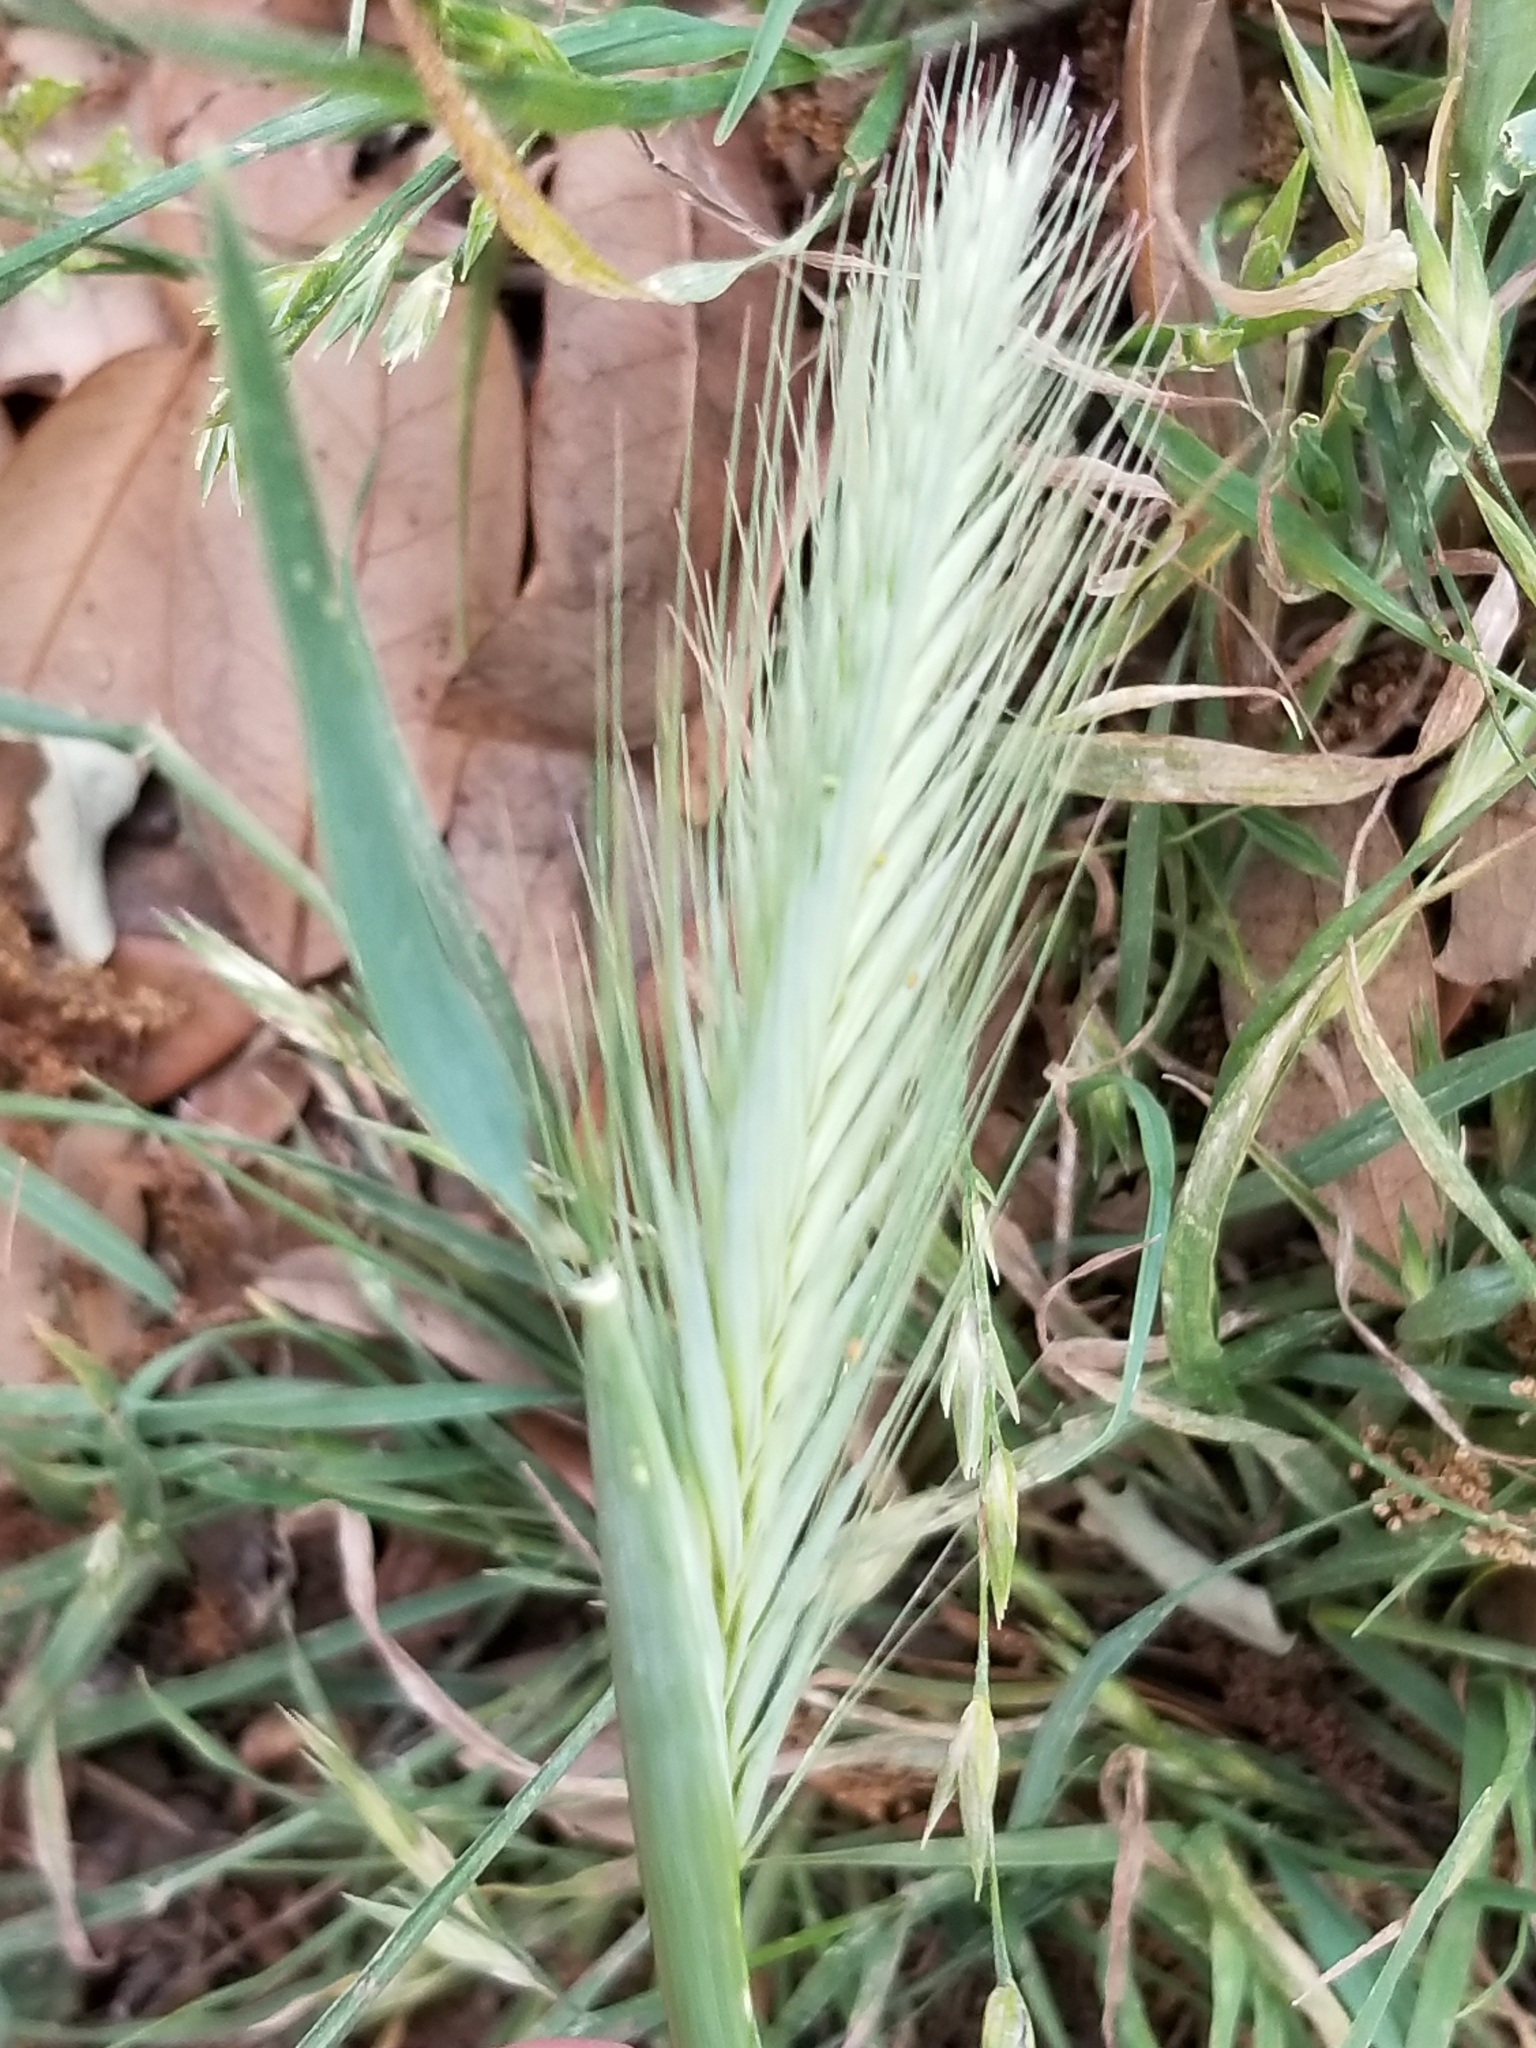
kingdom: Plantae
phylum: Tracheophyta
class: Liliopsida
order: Poales
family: Poaceae
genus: Hordeum
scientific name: Hordeum murinum
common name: Wall barley
